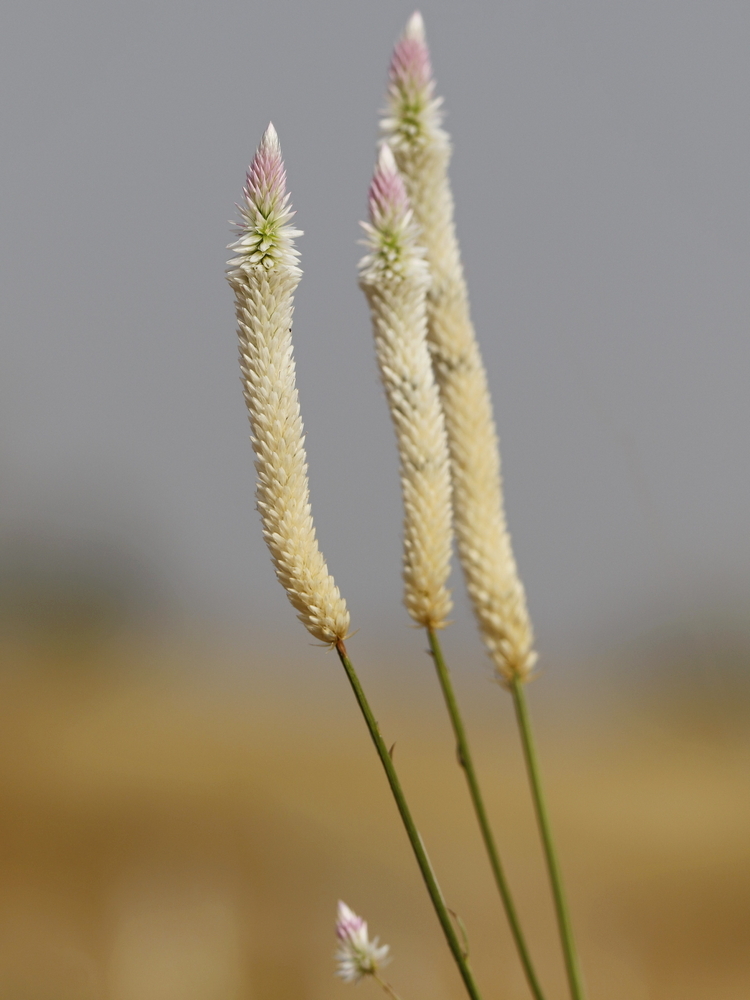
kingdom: Plantae
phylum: Tracheophyta
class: Magnoliopsida
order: Caryophyllales
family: Amaranthaceae
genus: Celosia
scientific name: Celosia argentea
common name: Feather cockscomb
